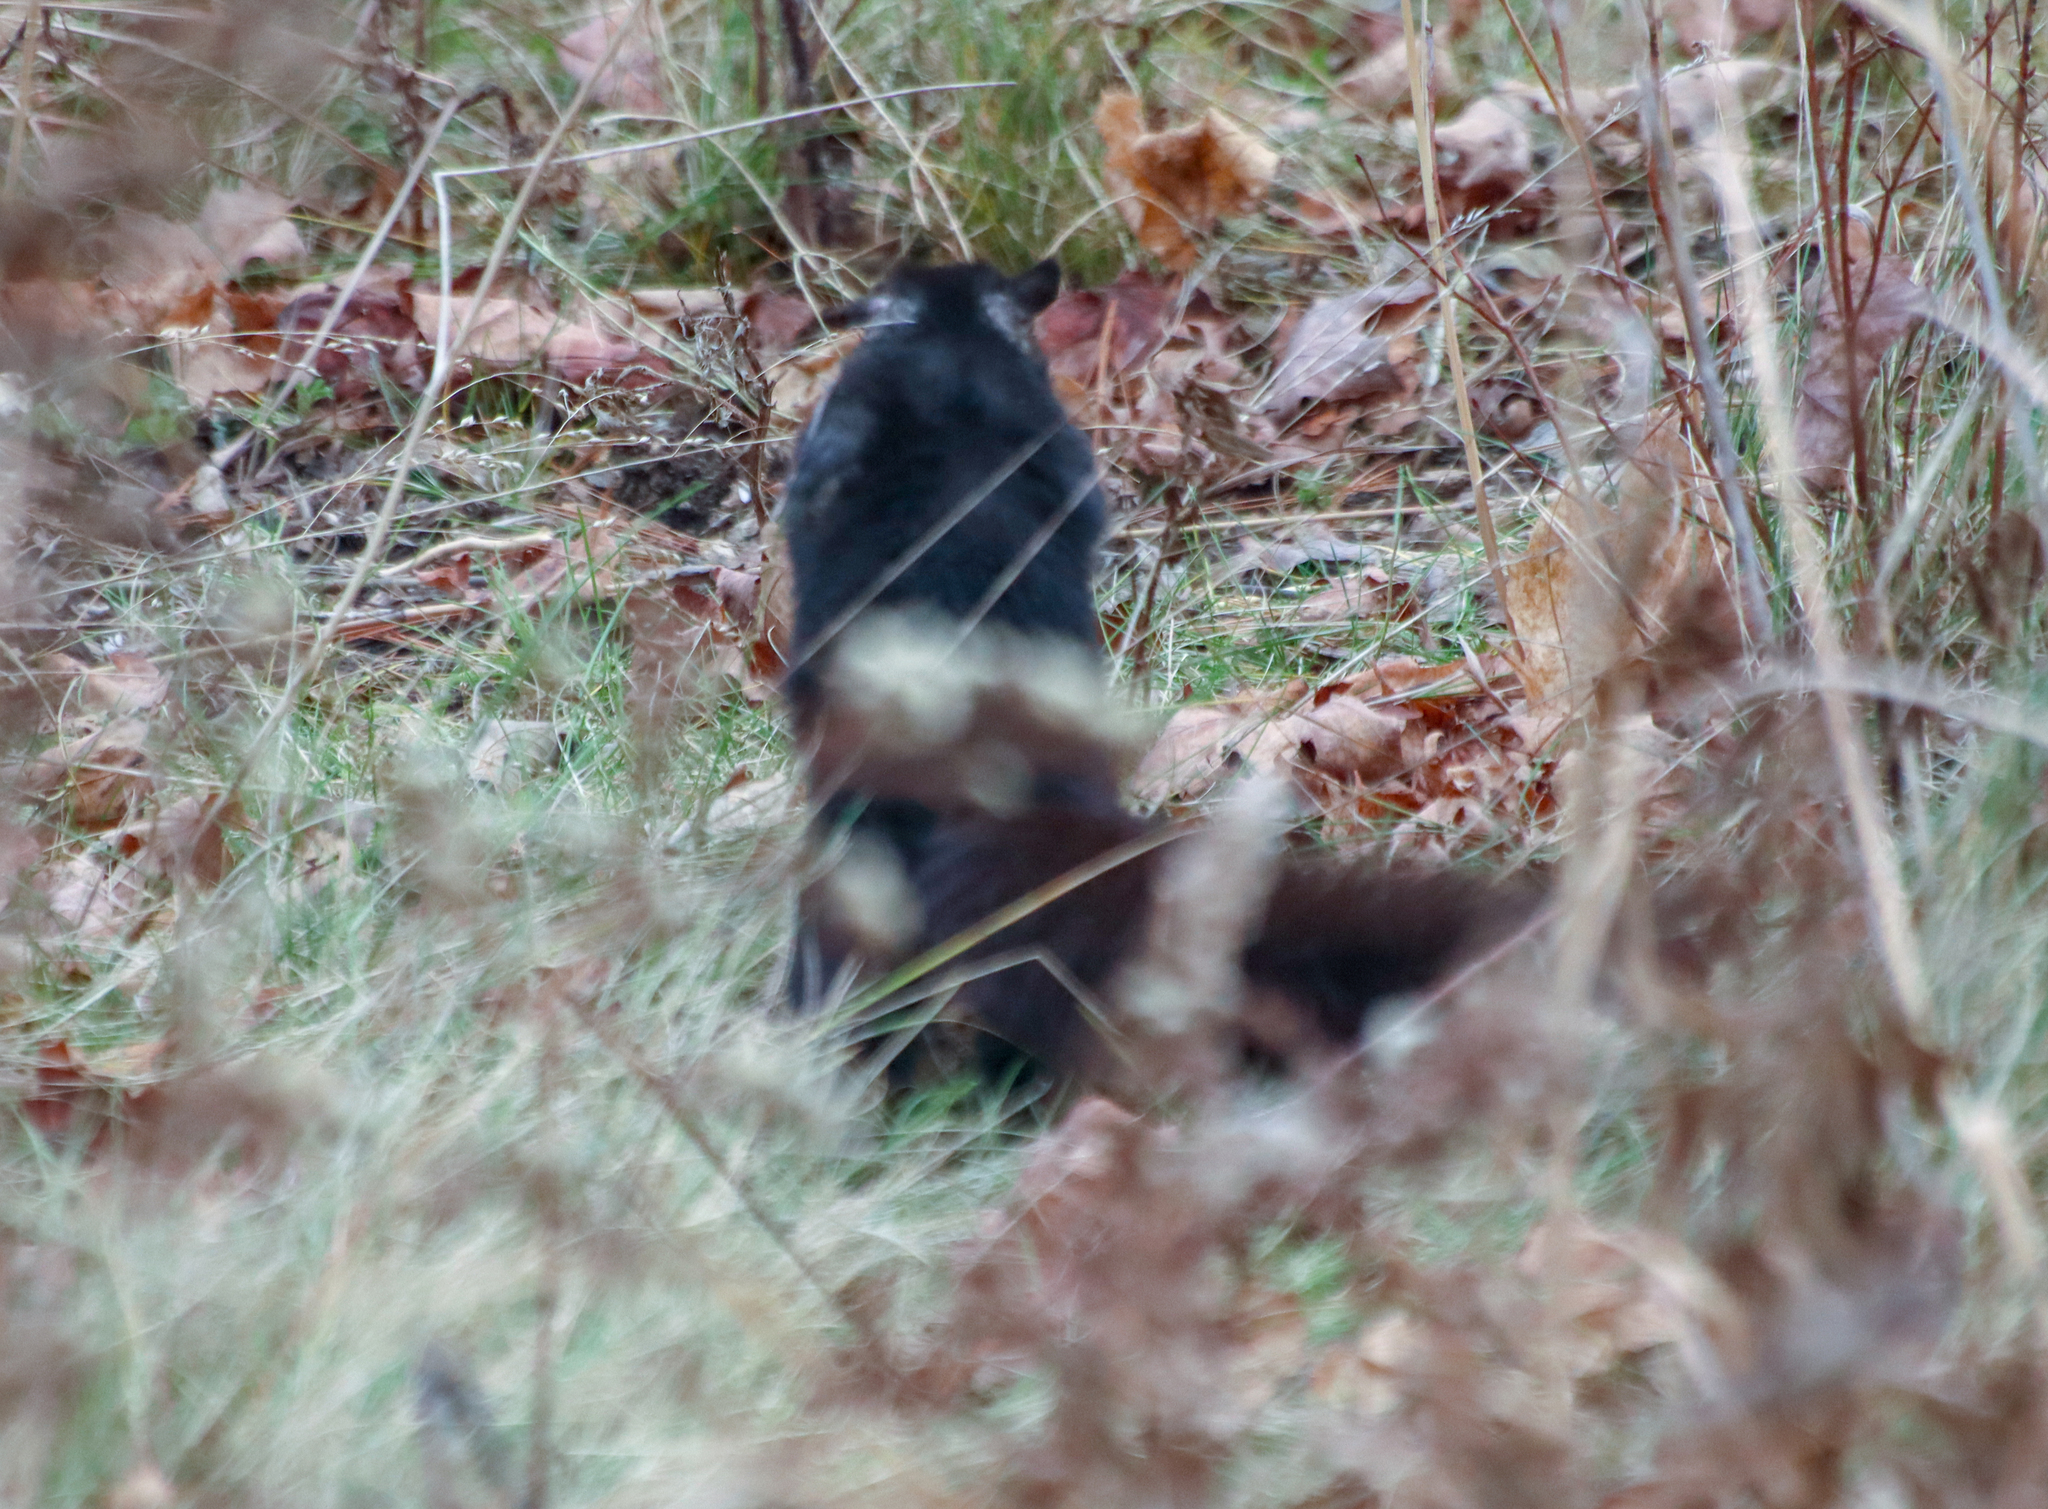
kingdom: Animalia
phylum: Chordata
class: Mammalia
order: Rodentia
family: Sciuridae
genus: Sciurus
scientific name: Sciurus carolinensis
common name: Eastern gray squirrel
